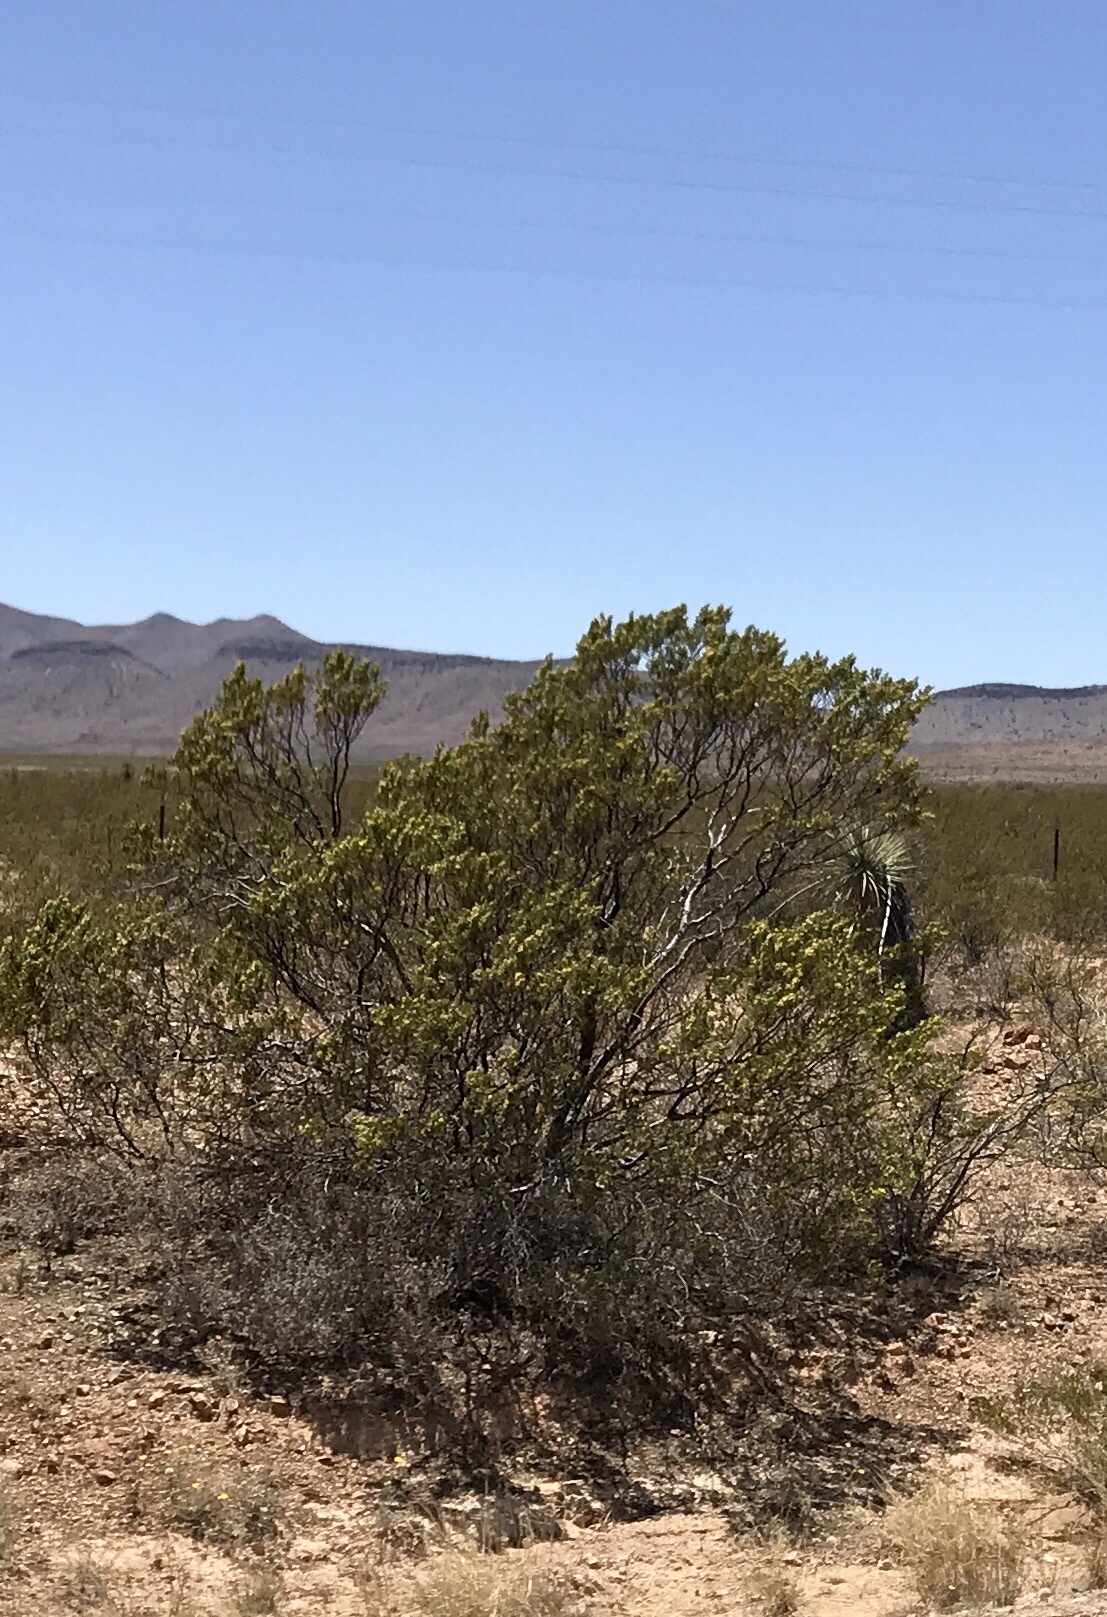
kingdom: Plantae
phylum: Tracheophyta
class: Magnoliopsida
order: Zygophyllales
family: Zygophyllaceae
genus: Larrea
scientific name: Larrea tridentata
